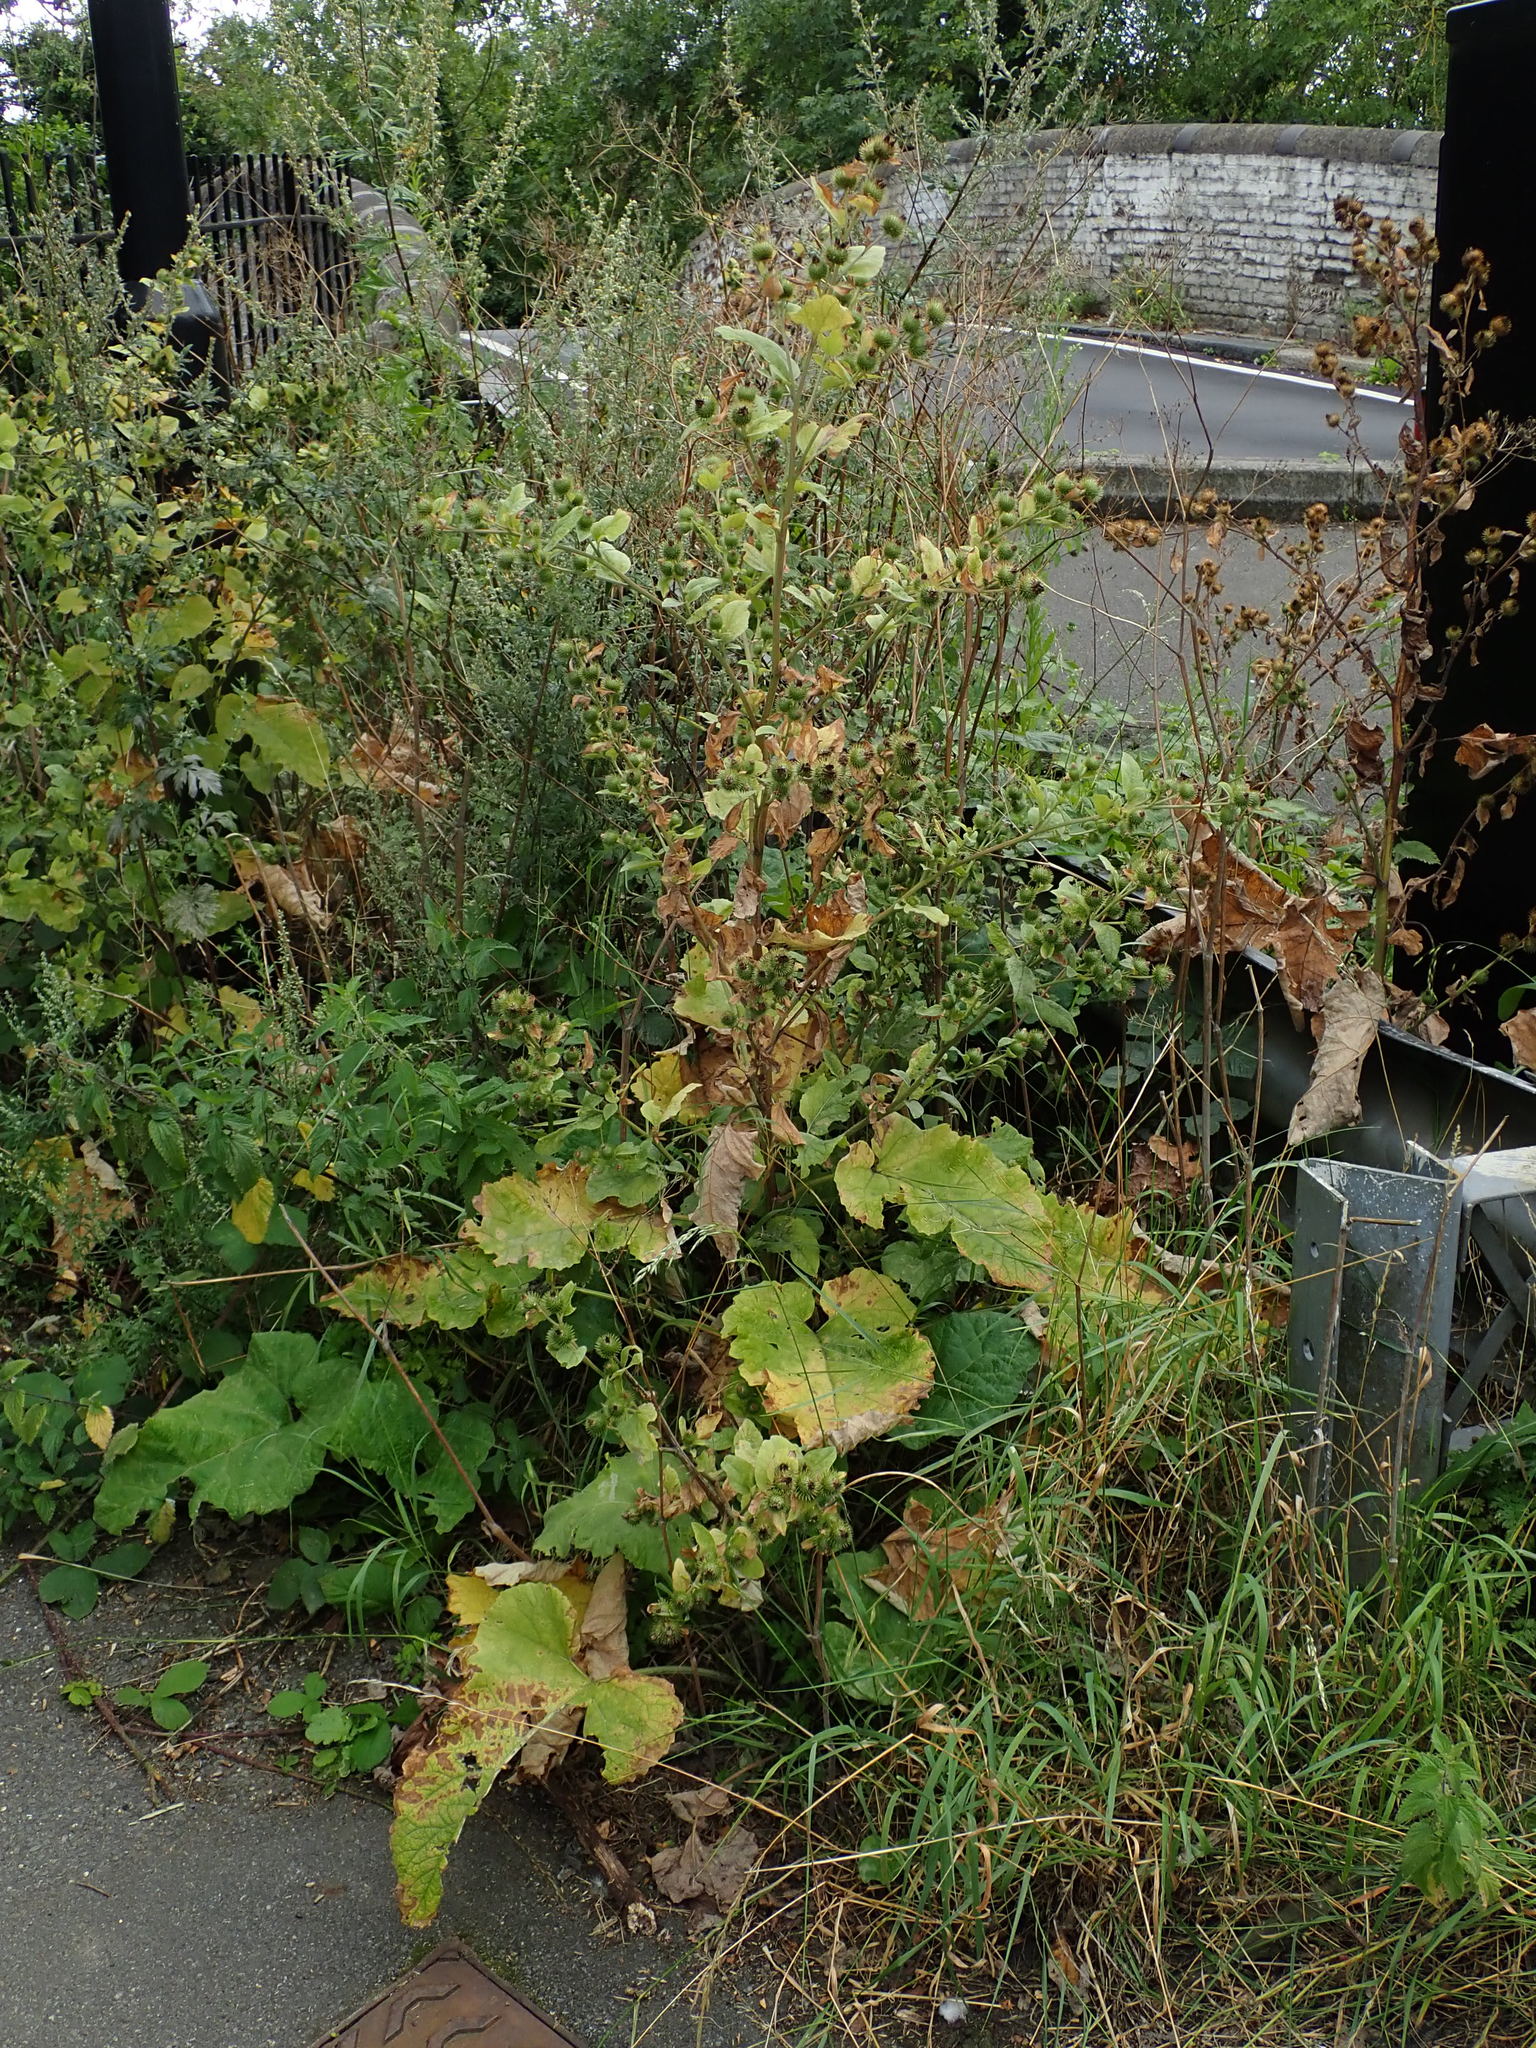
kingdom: Plantae
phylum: Tracheophyta
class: Magnoliopsida
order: Asterales
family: Asteraceae
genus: Arctium
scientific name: Arctium minus
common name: Lesser burdock
